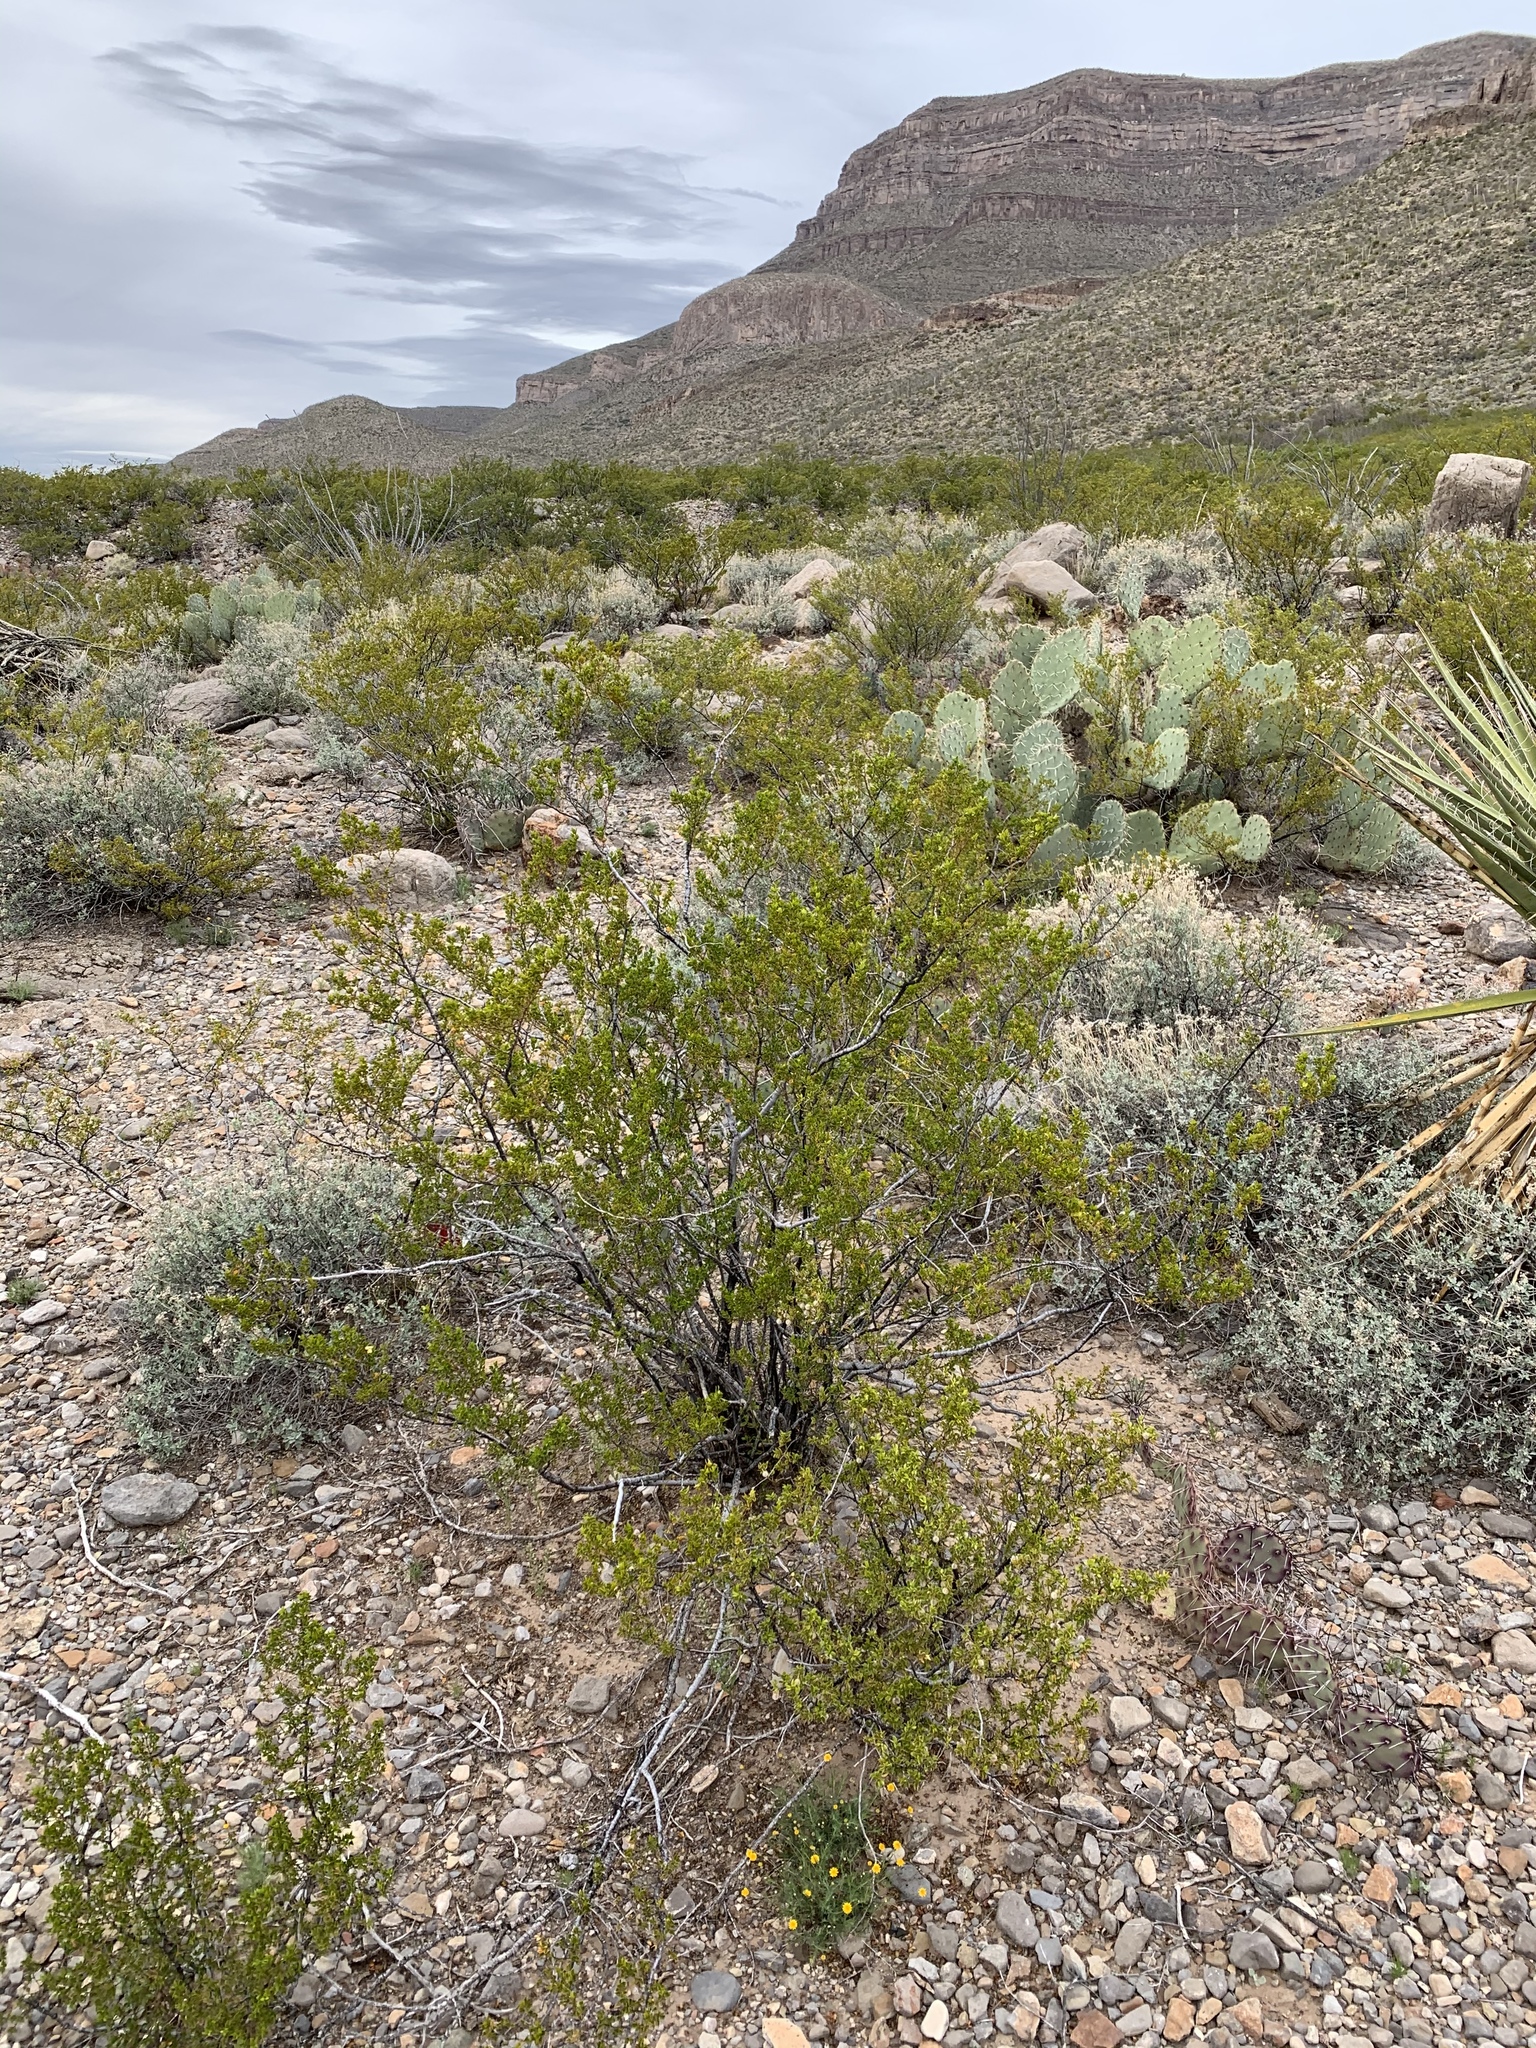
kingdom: Plantae
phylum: Tracheophyta
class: Magnoliopsida
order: Zygophyllales
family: Zygophyllaceae
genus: Larrea
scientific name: Larrea tridentata
